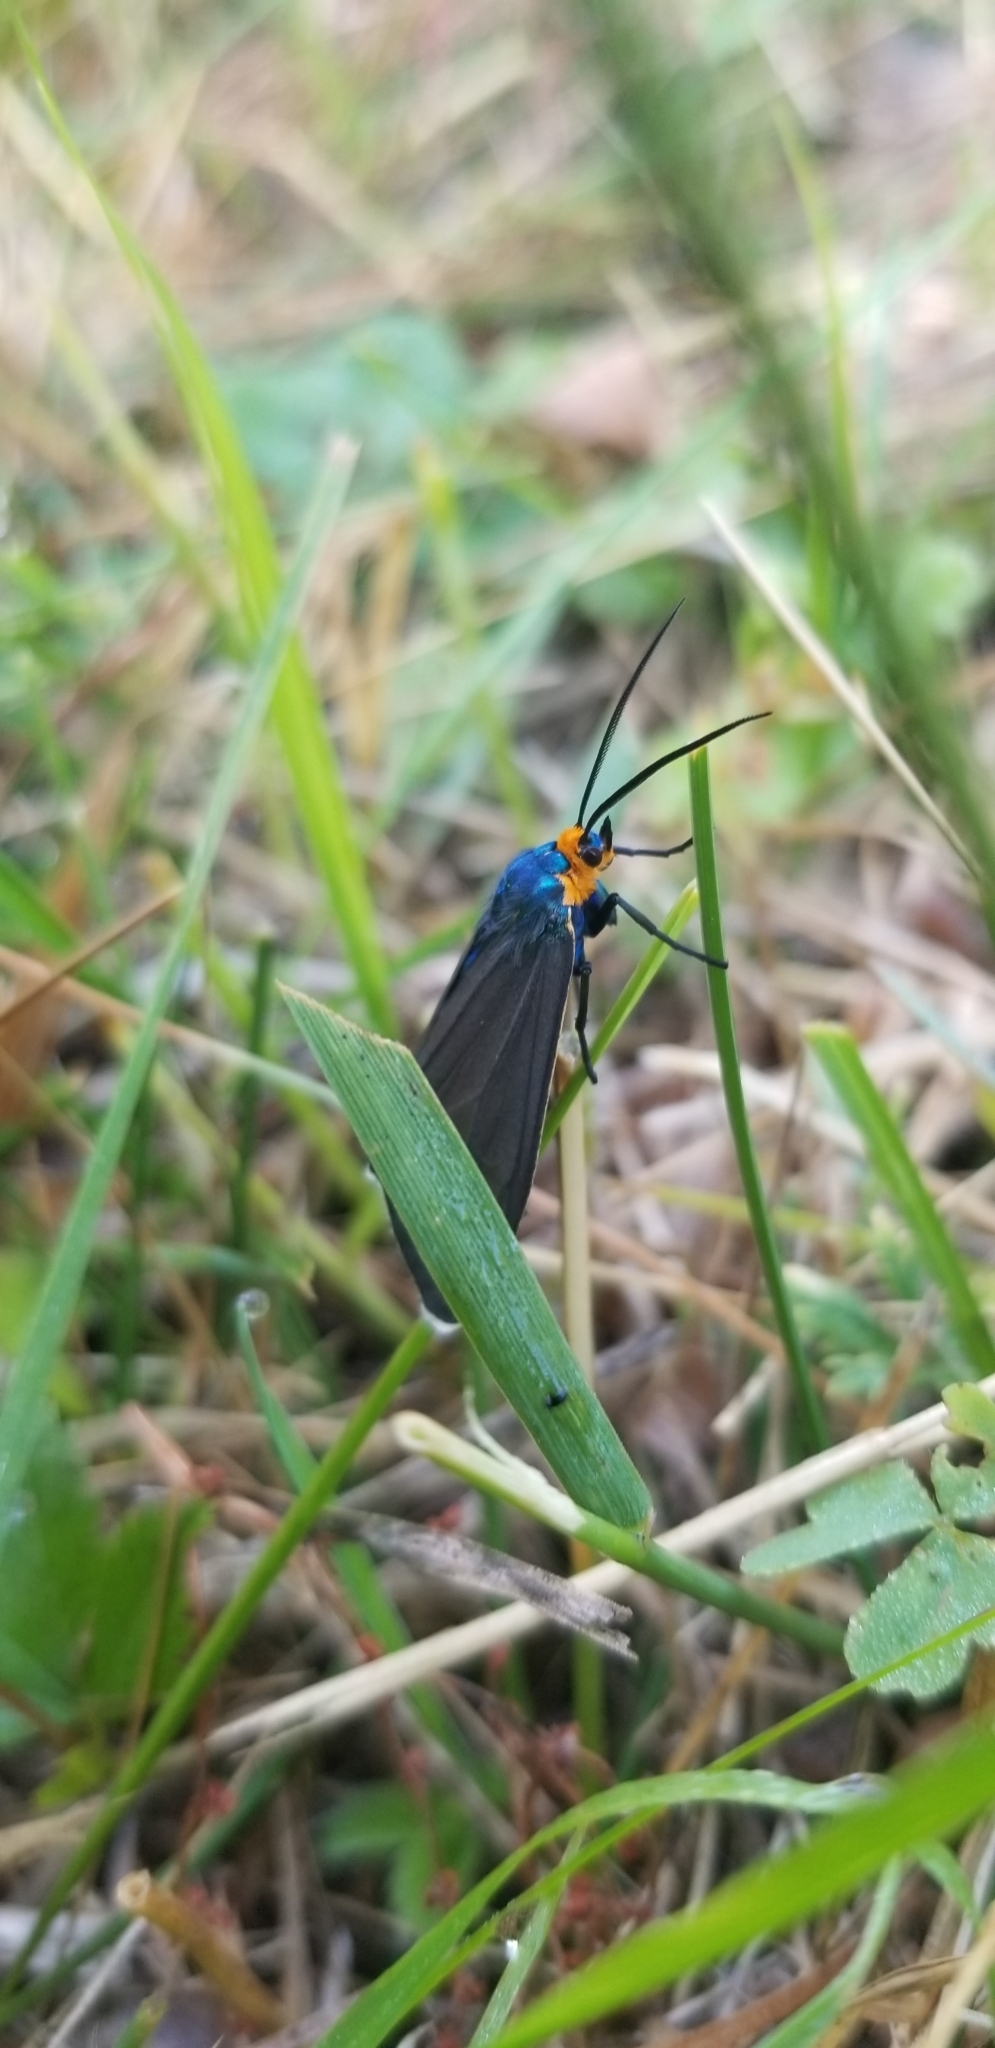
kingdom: Animalia
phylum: Arthropoda
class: Insecta
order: Lepidoptera
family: Erebidae
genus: Ctenucha
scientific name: Ctenucha virginica
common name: Virginia ctenucha moth
